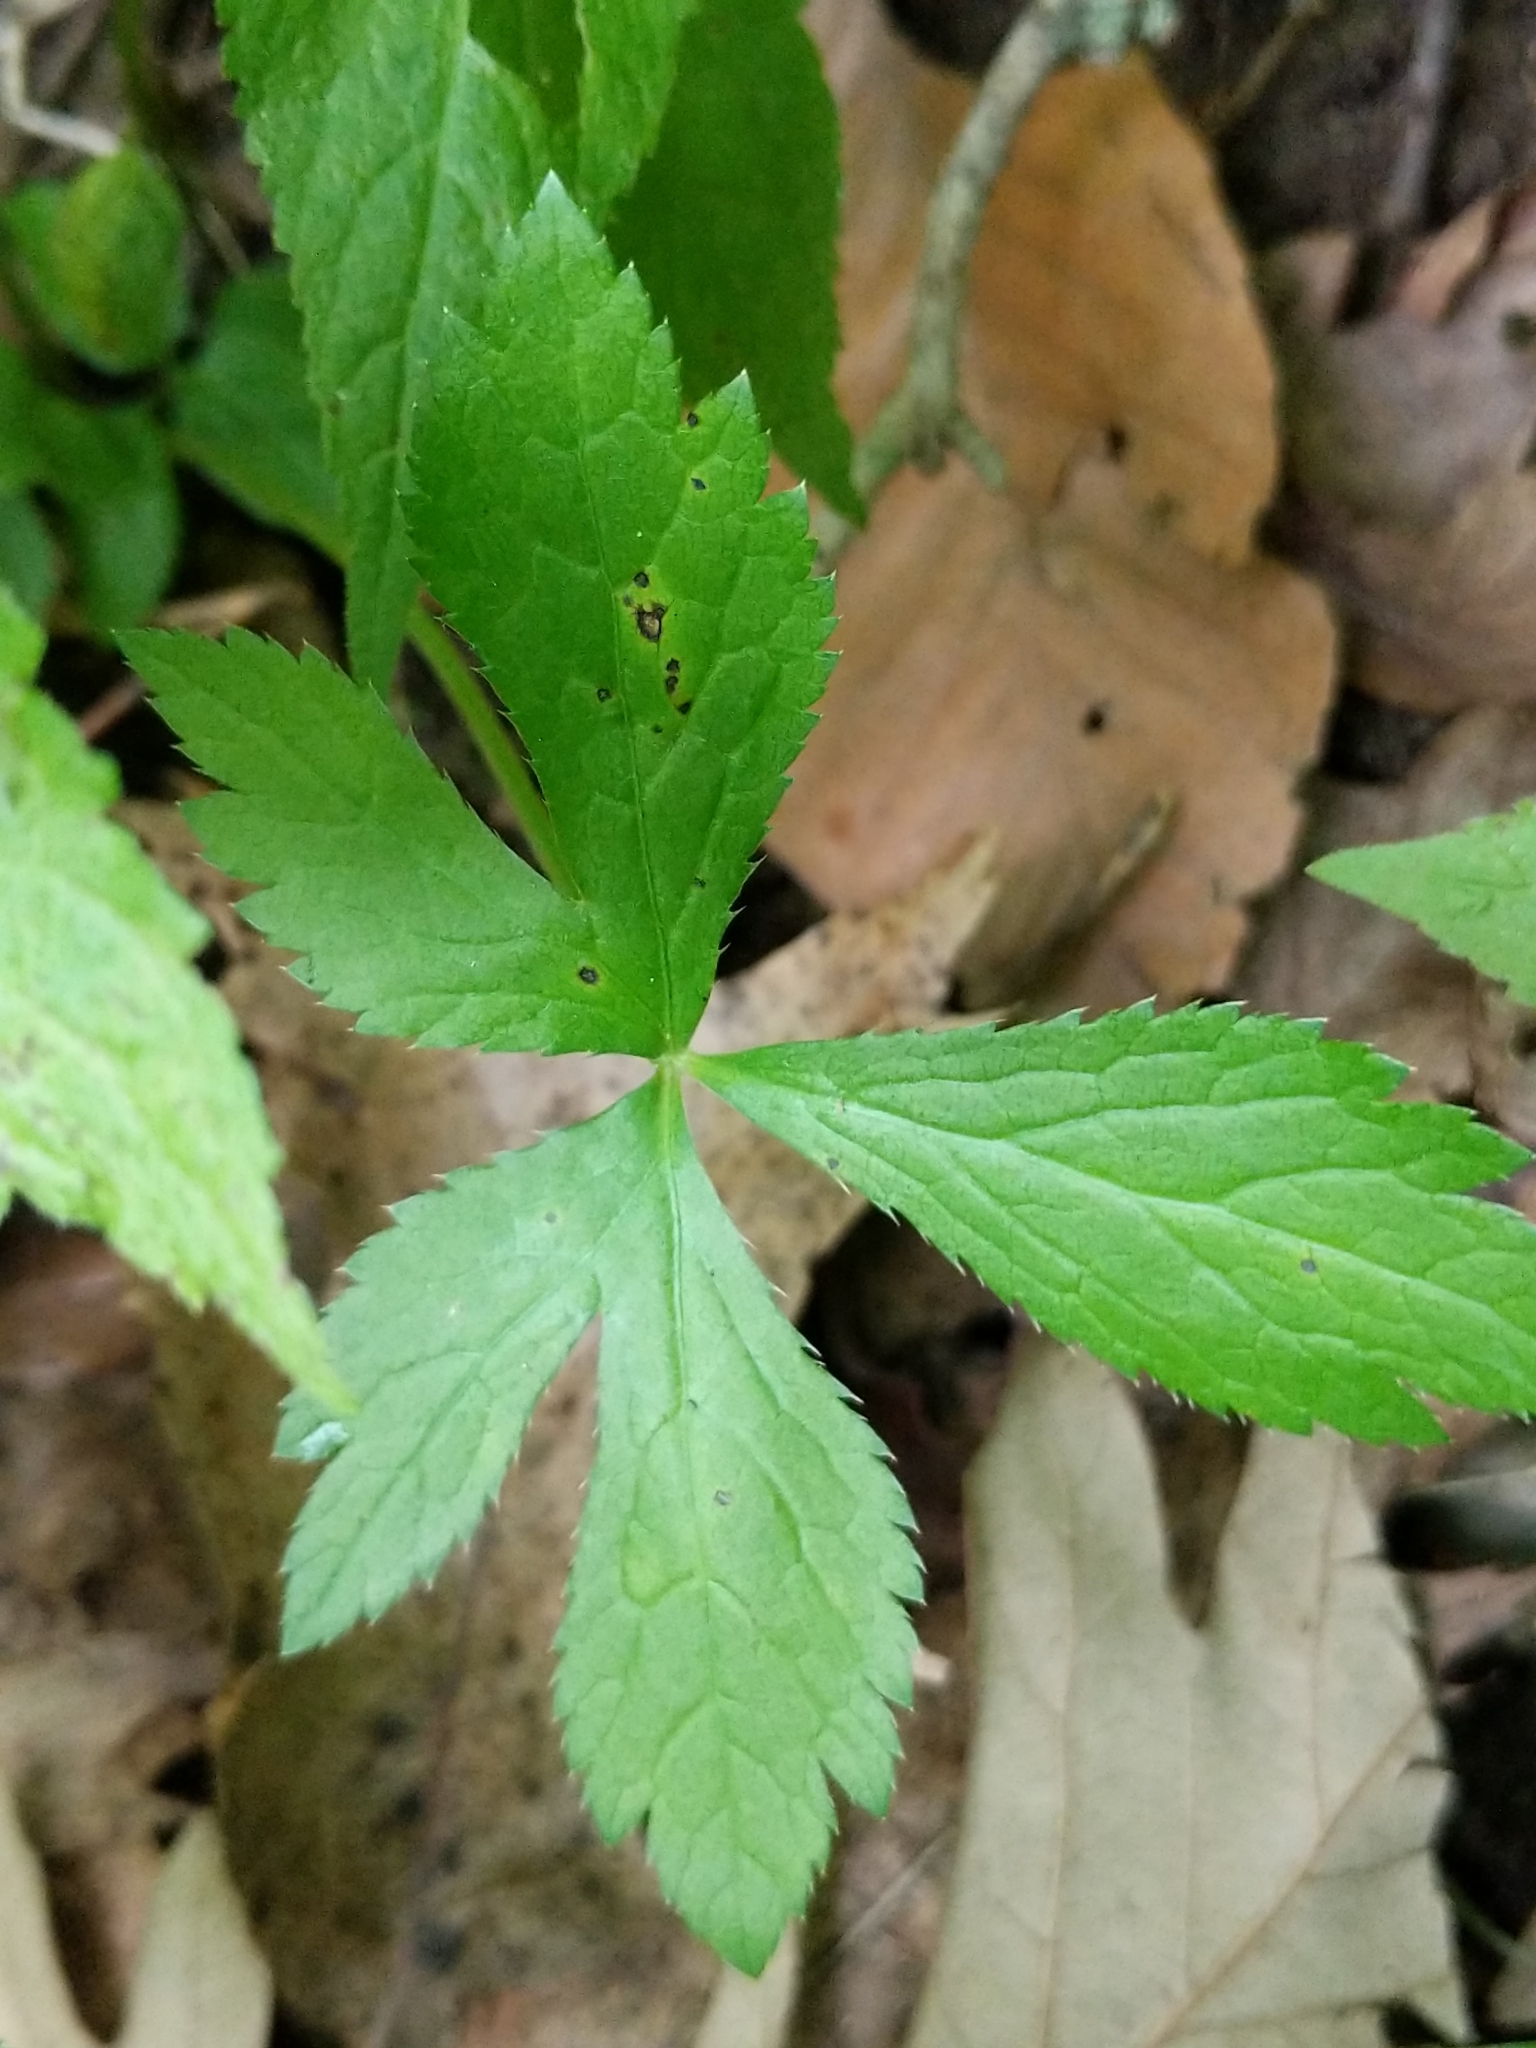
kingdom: Plantae
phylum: Tracheophyta
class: Magnoliopsida
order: Apiales
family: Apiaceae
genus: Sanicula
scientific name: Sanicula trifoliata
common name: Beaked sanicle
